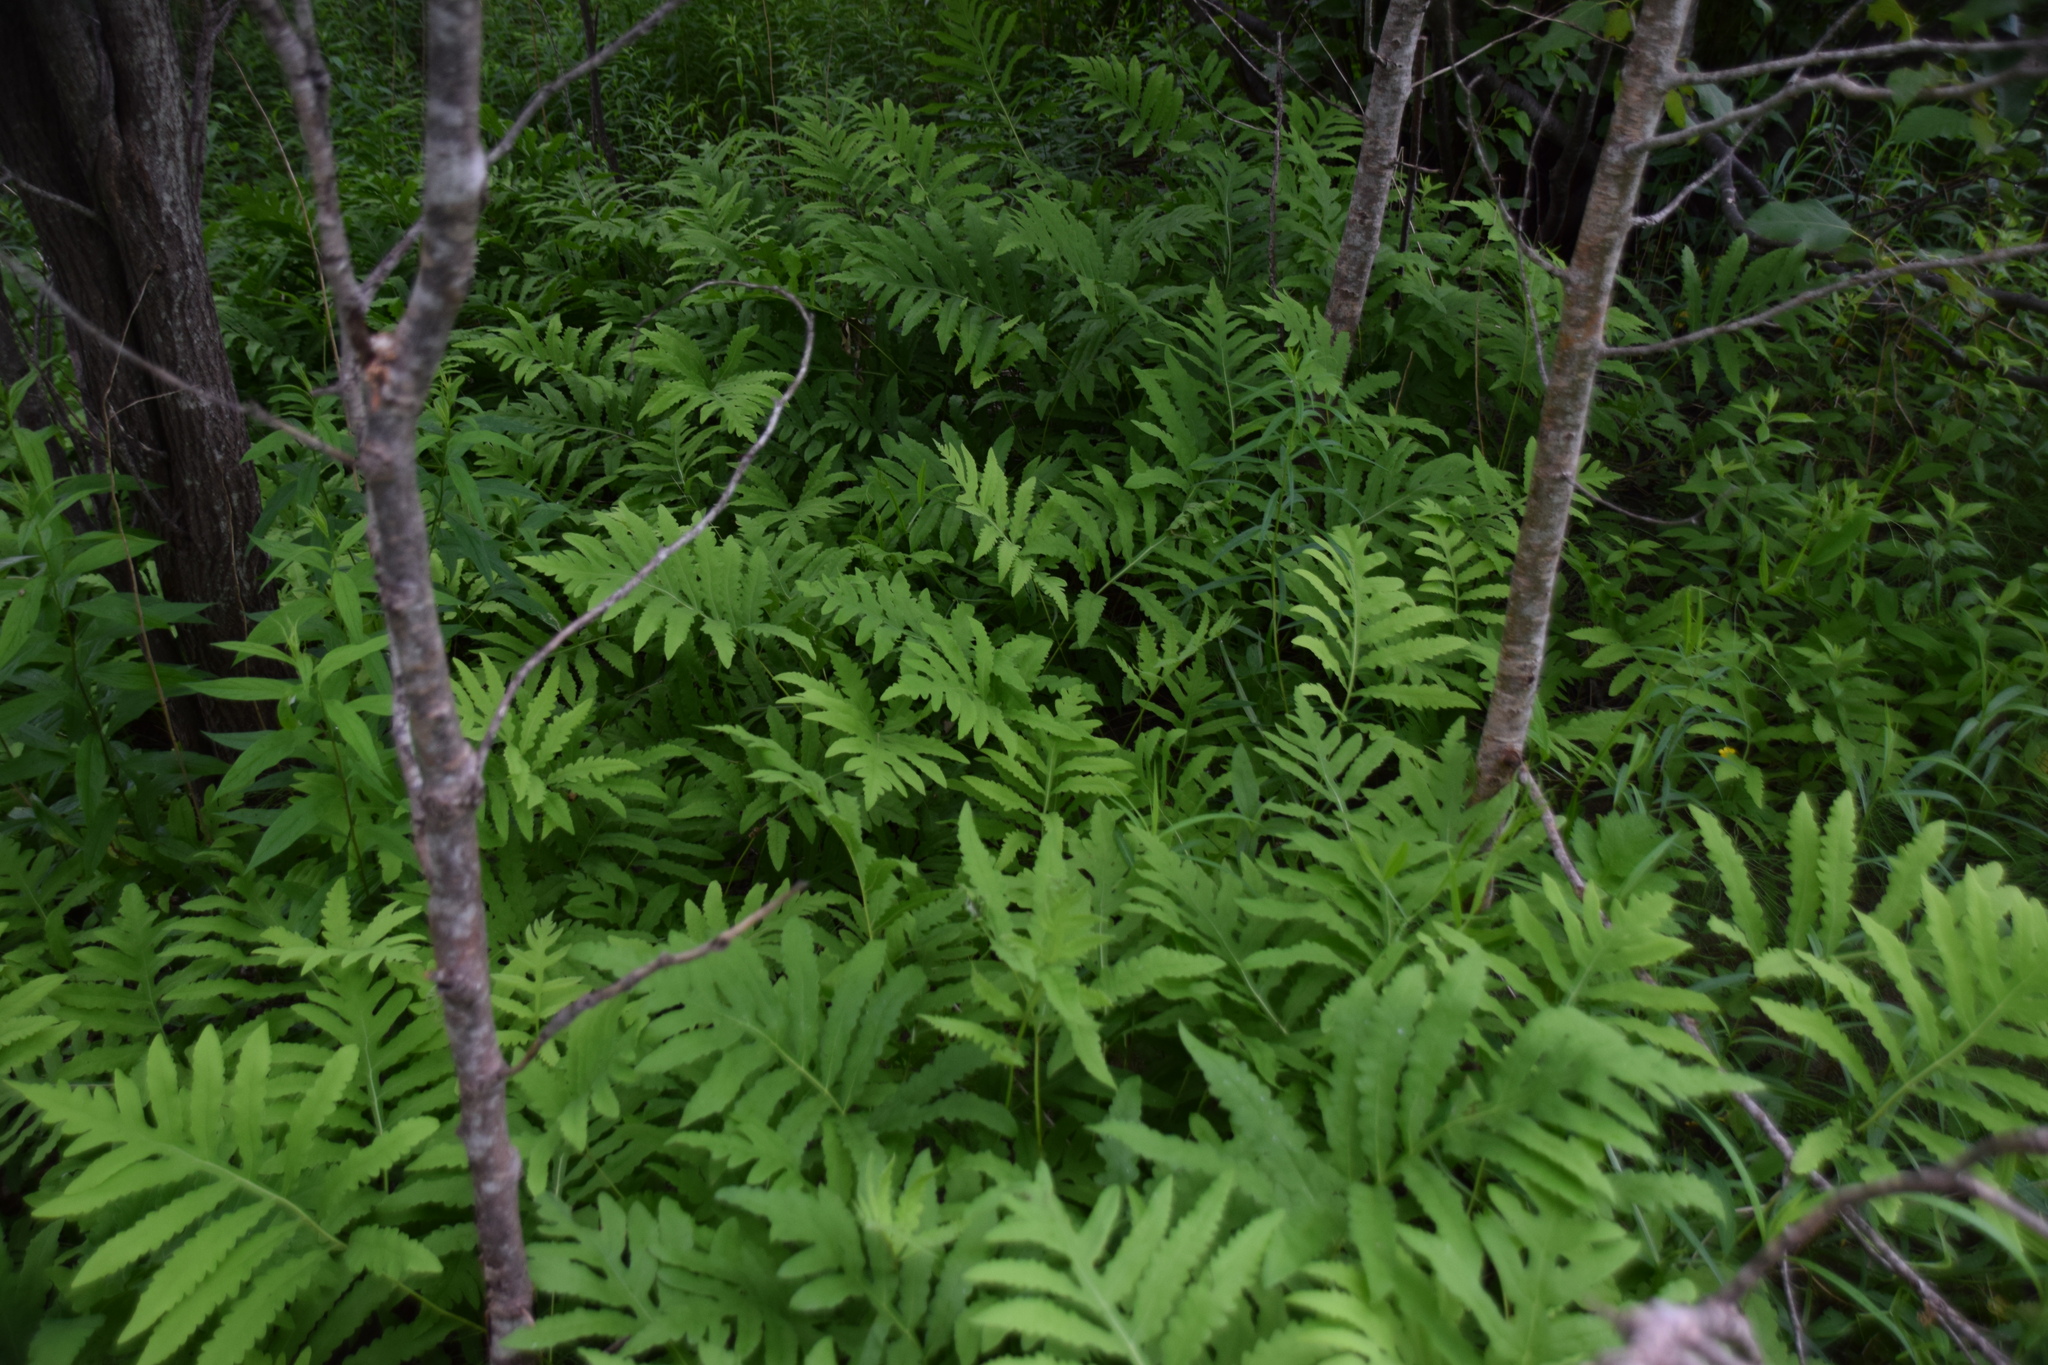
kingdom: Plantae
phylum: Tracheophyta
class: Polypodiopsida
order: Polypodiales
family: Onocleaceae
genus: Onoclea
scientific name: Onoclea sensibilis
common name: Sensitive fern
